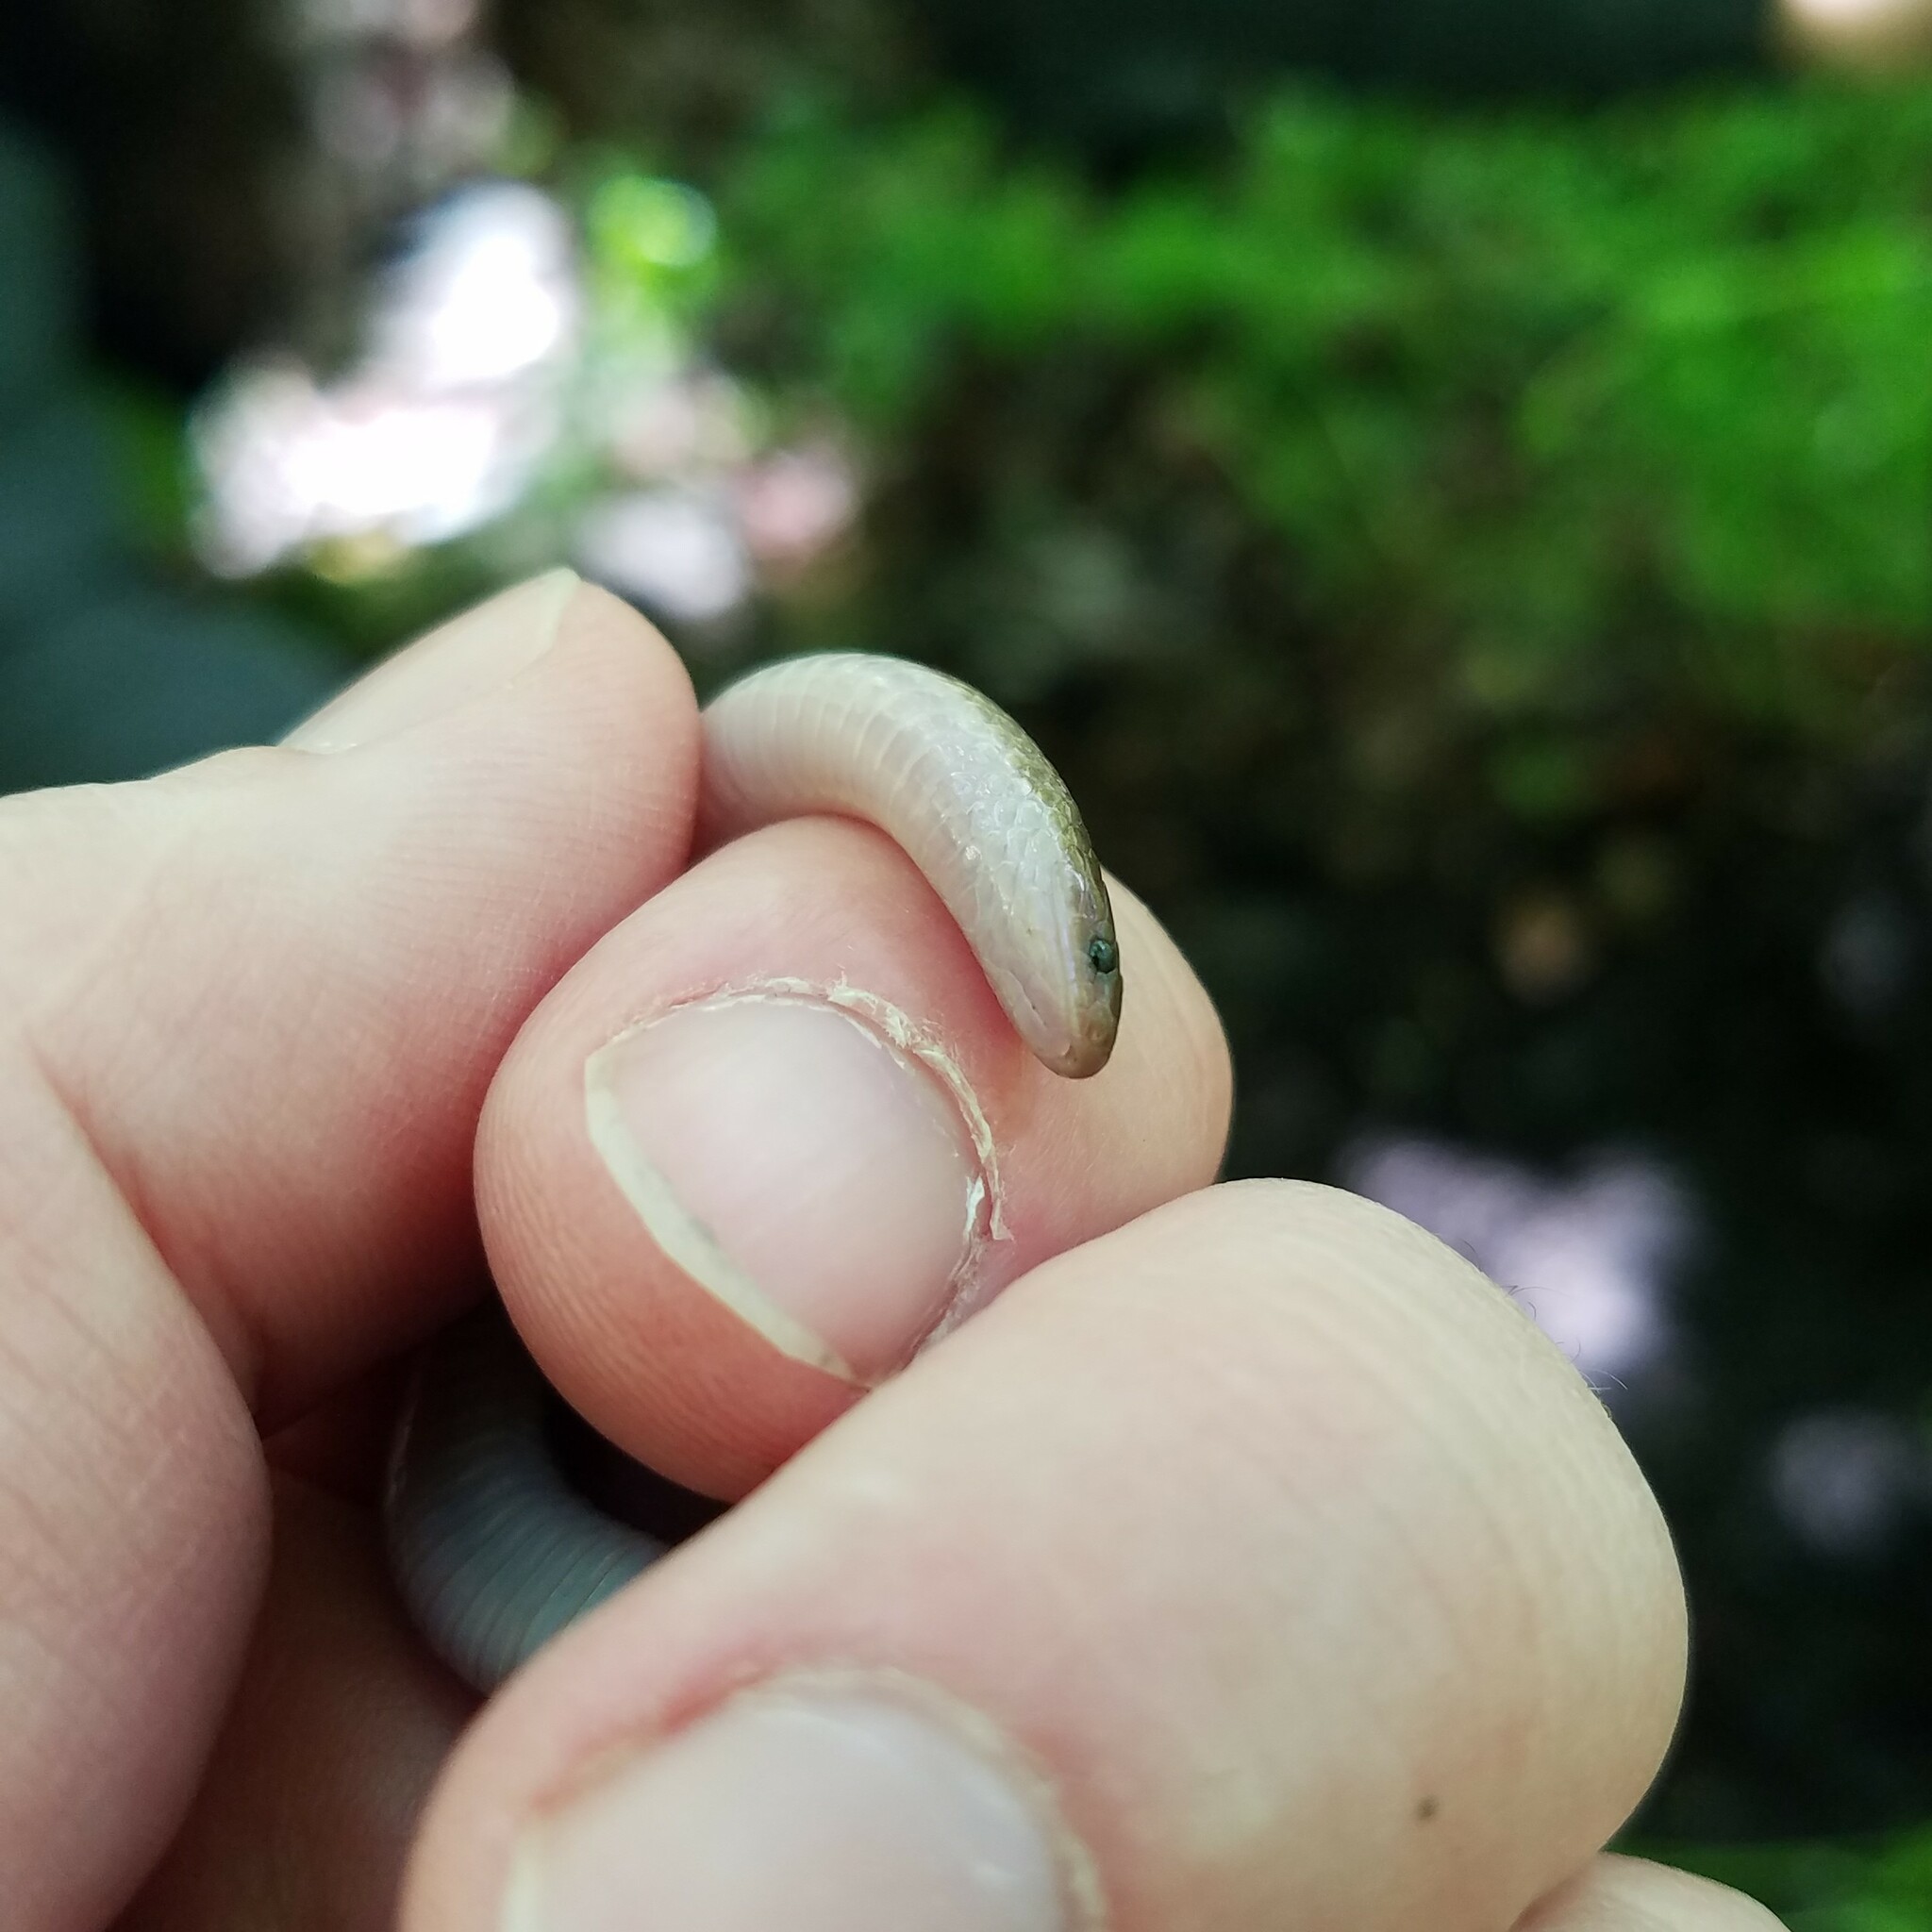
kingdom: Animalia
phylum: Chordata
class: Squamata
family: Colubridae
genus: Carphophis
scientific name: Carphophis amoenus
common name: Eastern worm snake
